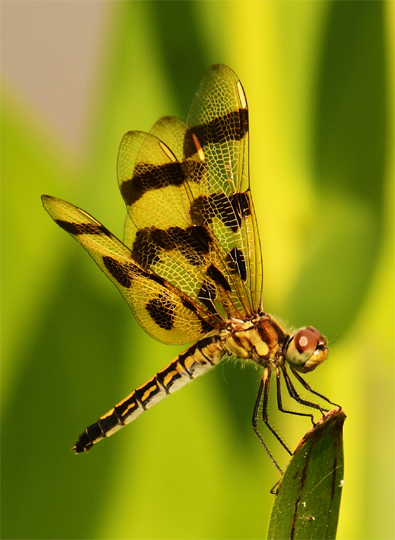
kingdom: Animalia
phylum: Arthropoda
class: Insecta
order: Odonata
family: Libellulidae
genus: Celithemis
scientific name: Celithemis eponina
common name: Halloween pennant
